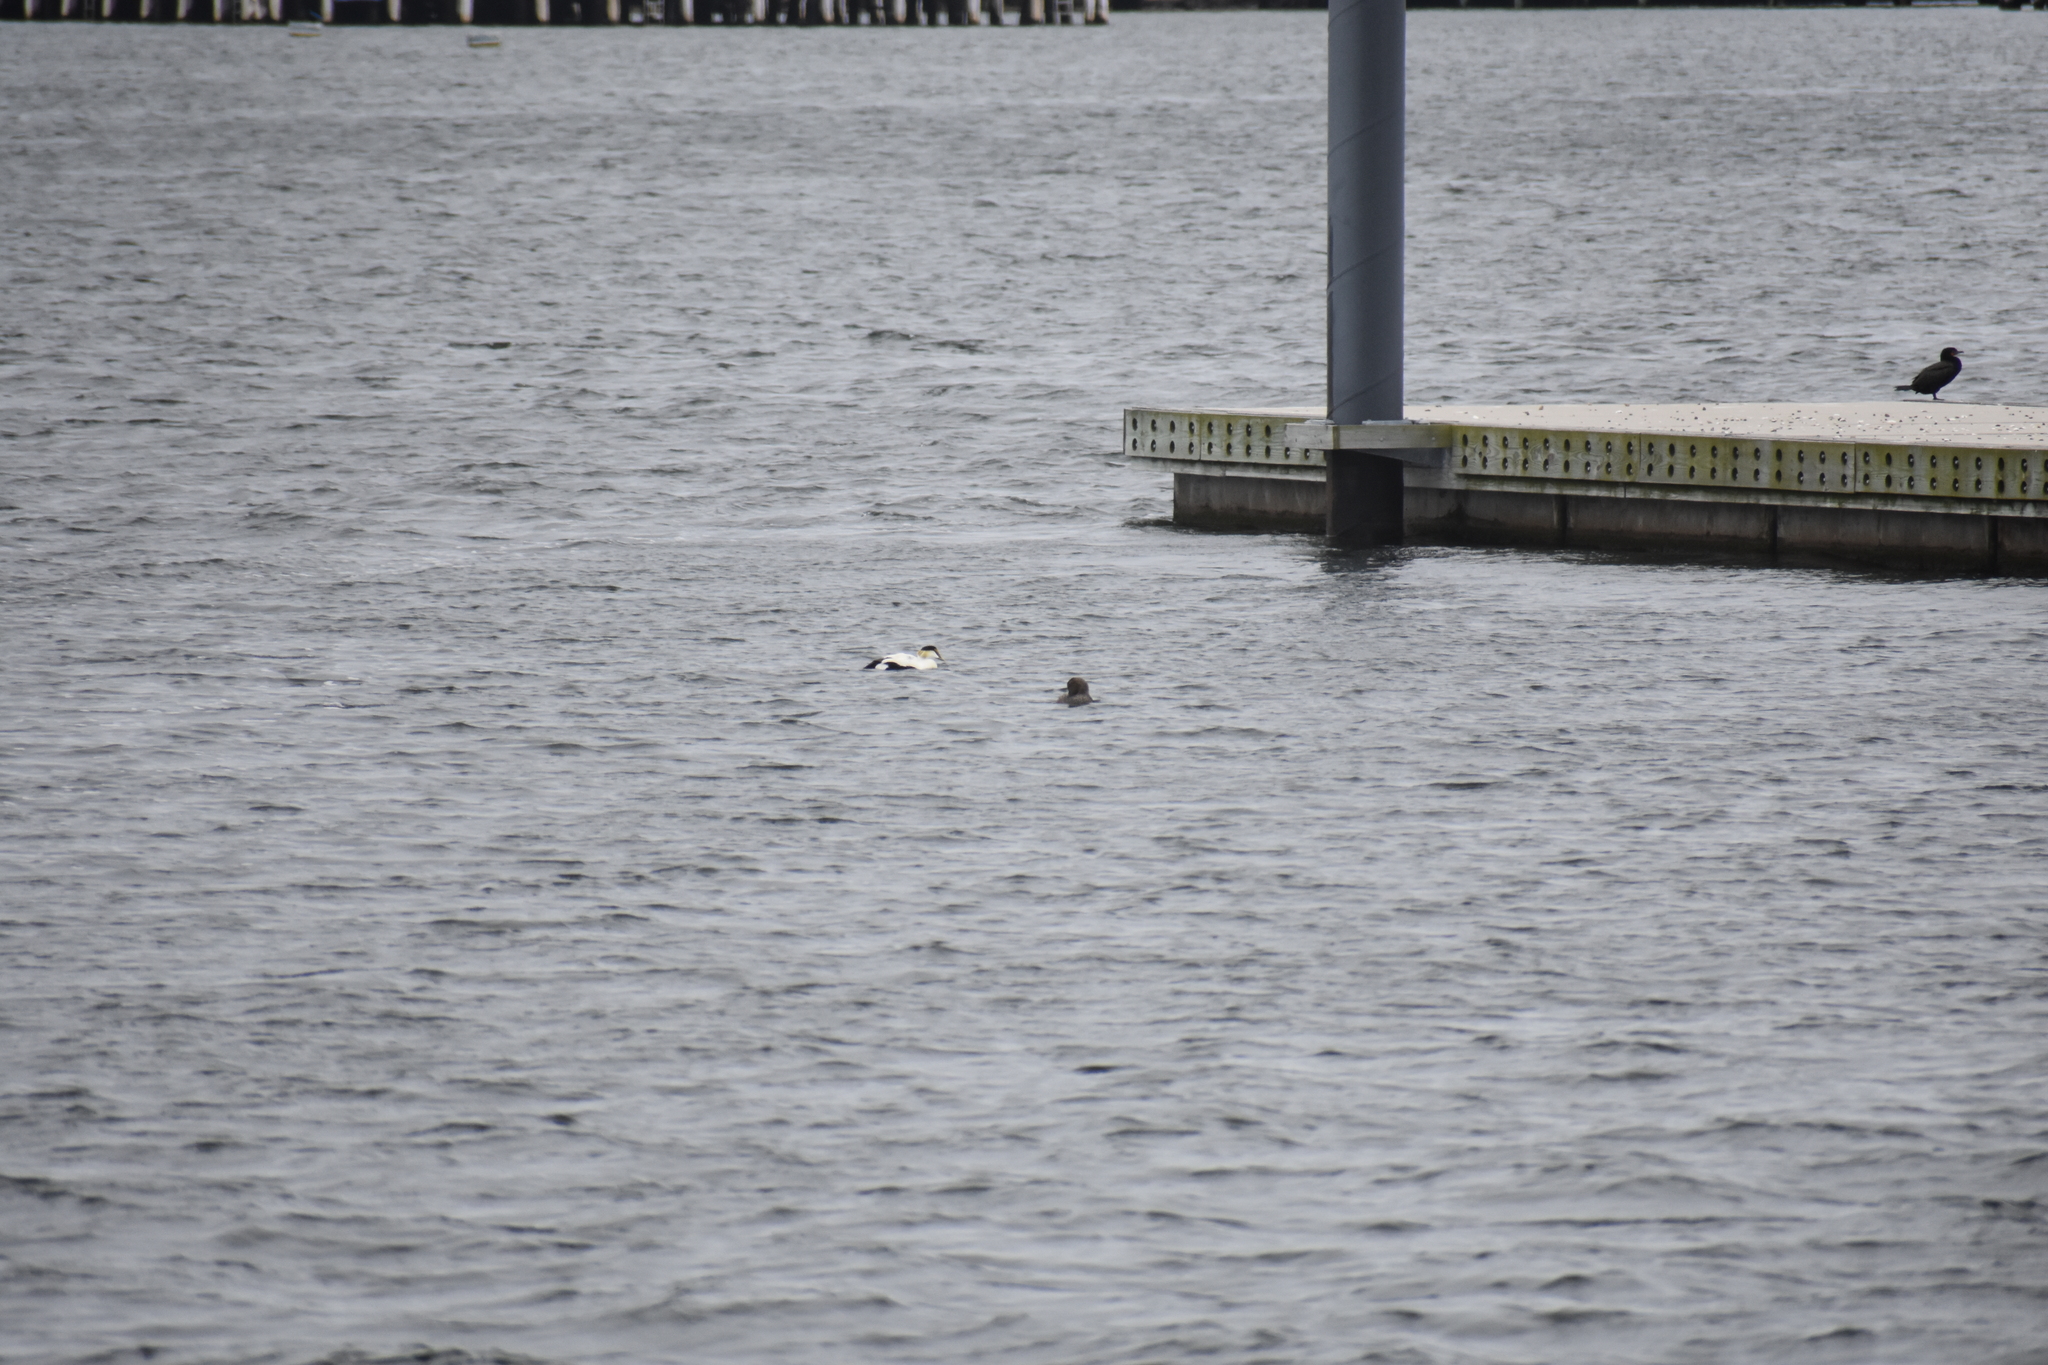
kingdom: Animalia
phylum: Chordata
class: Aves
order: Anseriformes
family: Anatidae
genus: Somateria
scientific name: Somateria mollissima
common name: Common eider
